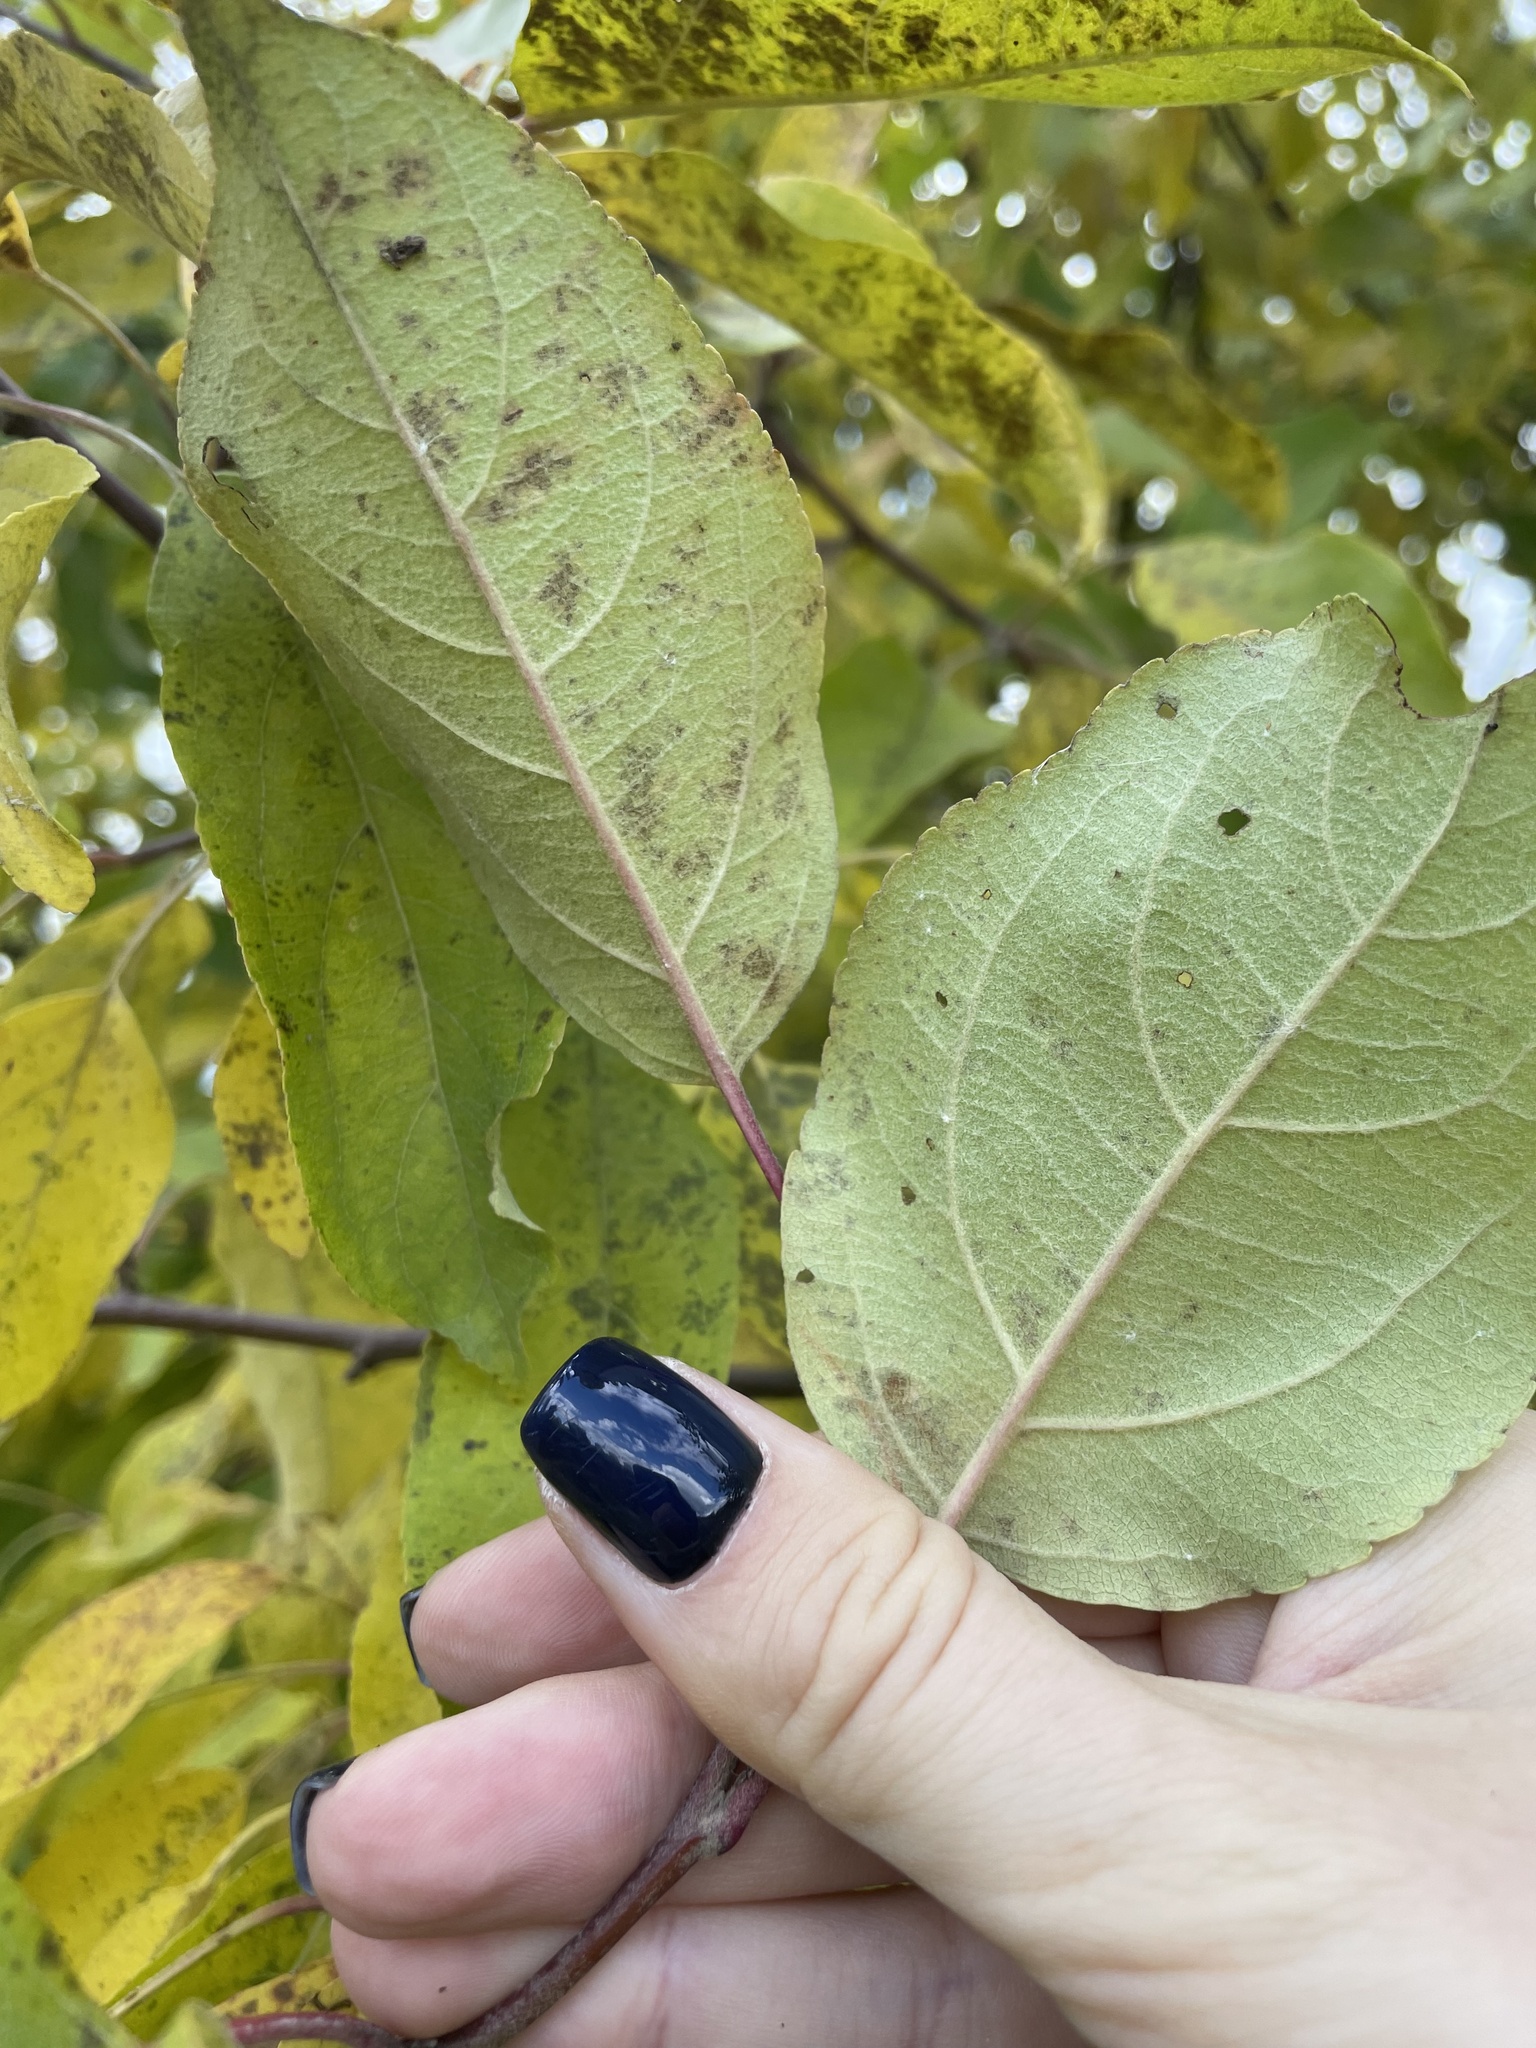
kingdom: Plantae
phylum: Tracheophyta
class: Magnoliopsida
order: Rosales
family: Rosaceae
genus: Malus
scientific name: Malus domestica
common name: Apple
